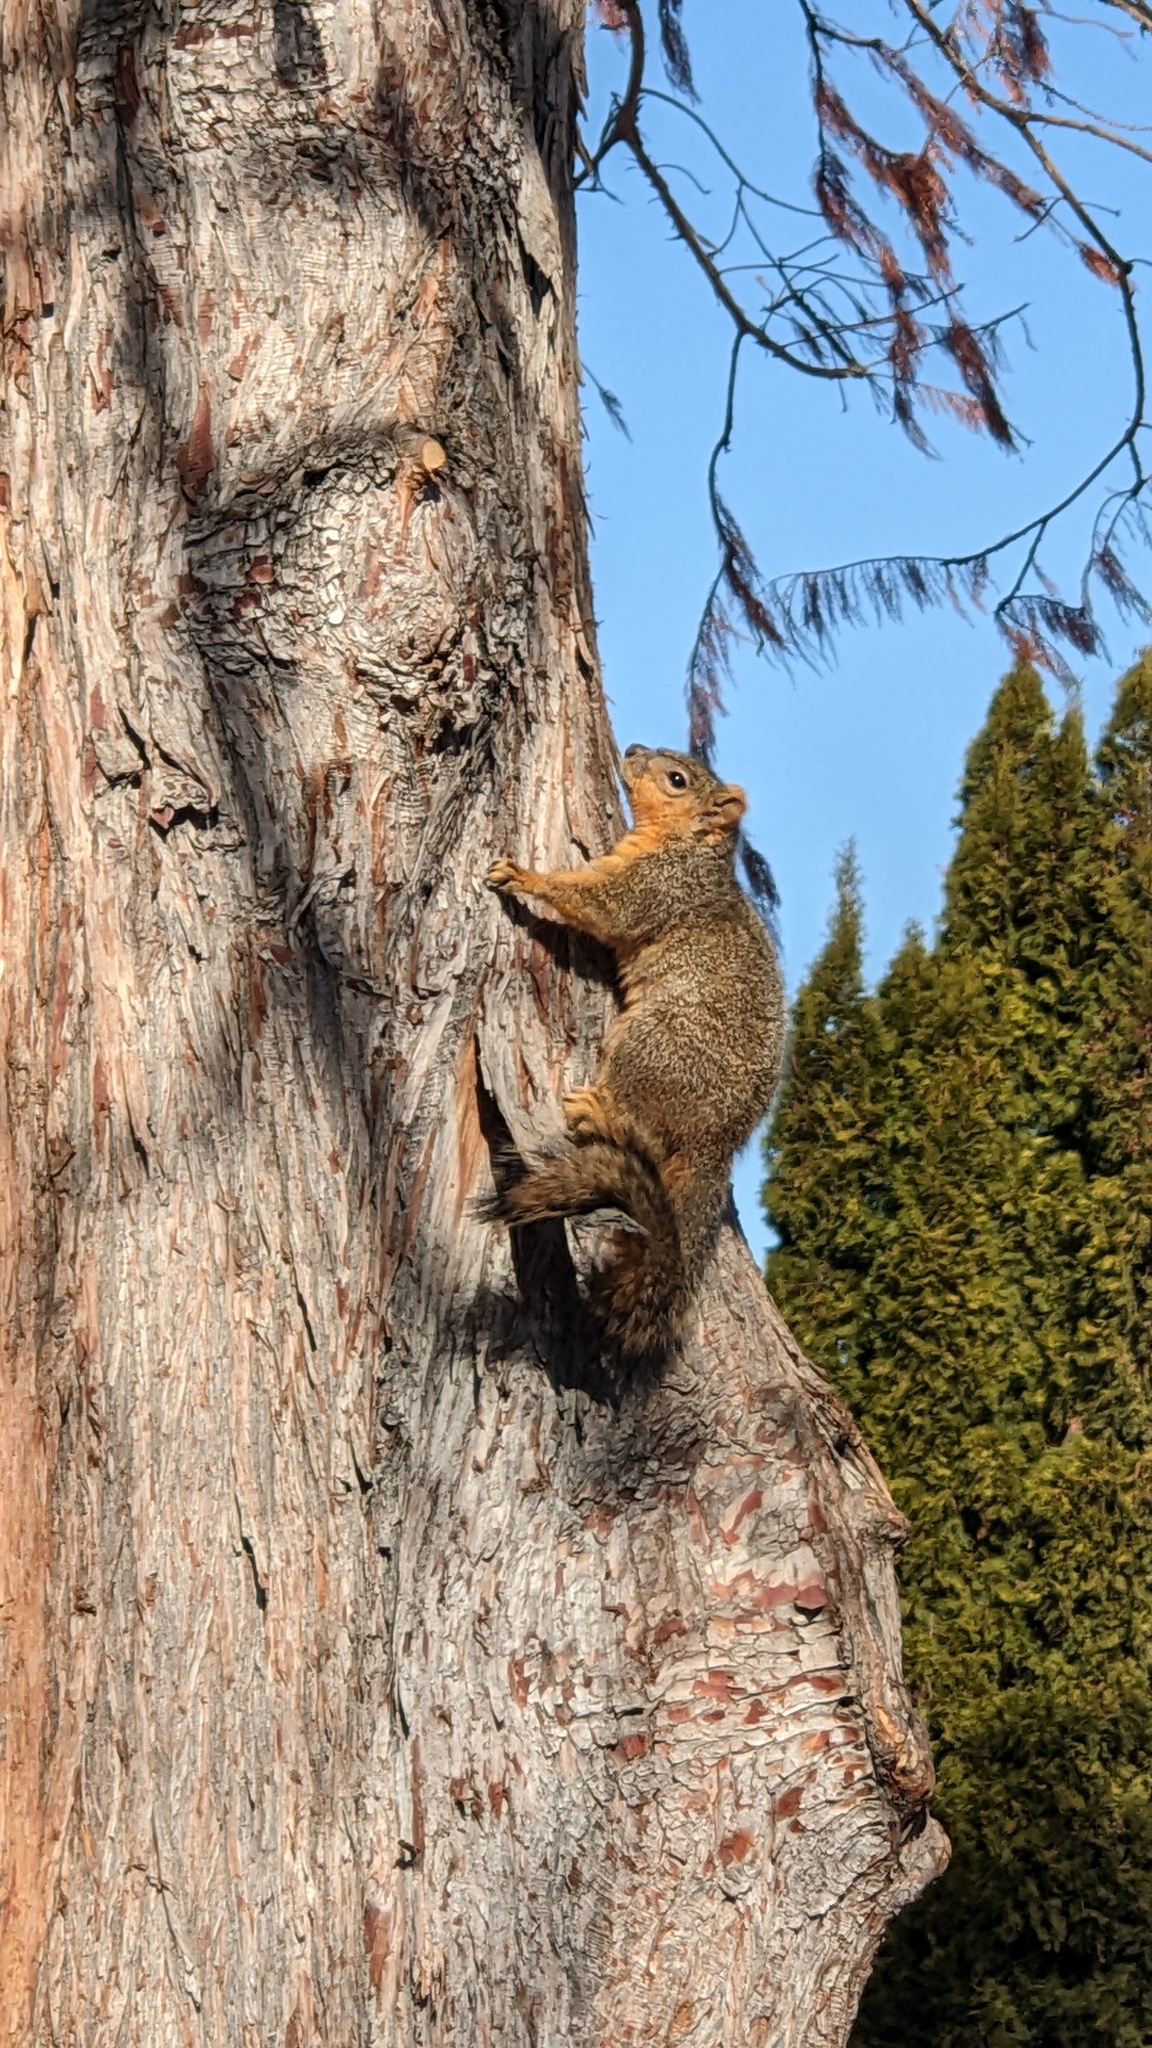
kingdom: Animalia
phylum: Chordata
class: Mammalia
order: Rodentia
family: Sciuridae
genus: Sciurus
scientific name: Sciurus niger
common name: Fox squirrel
